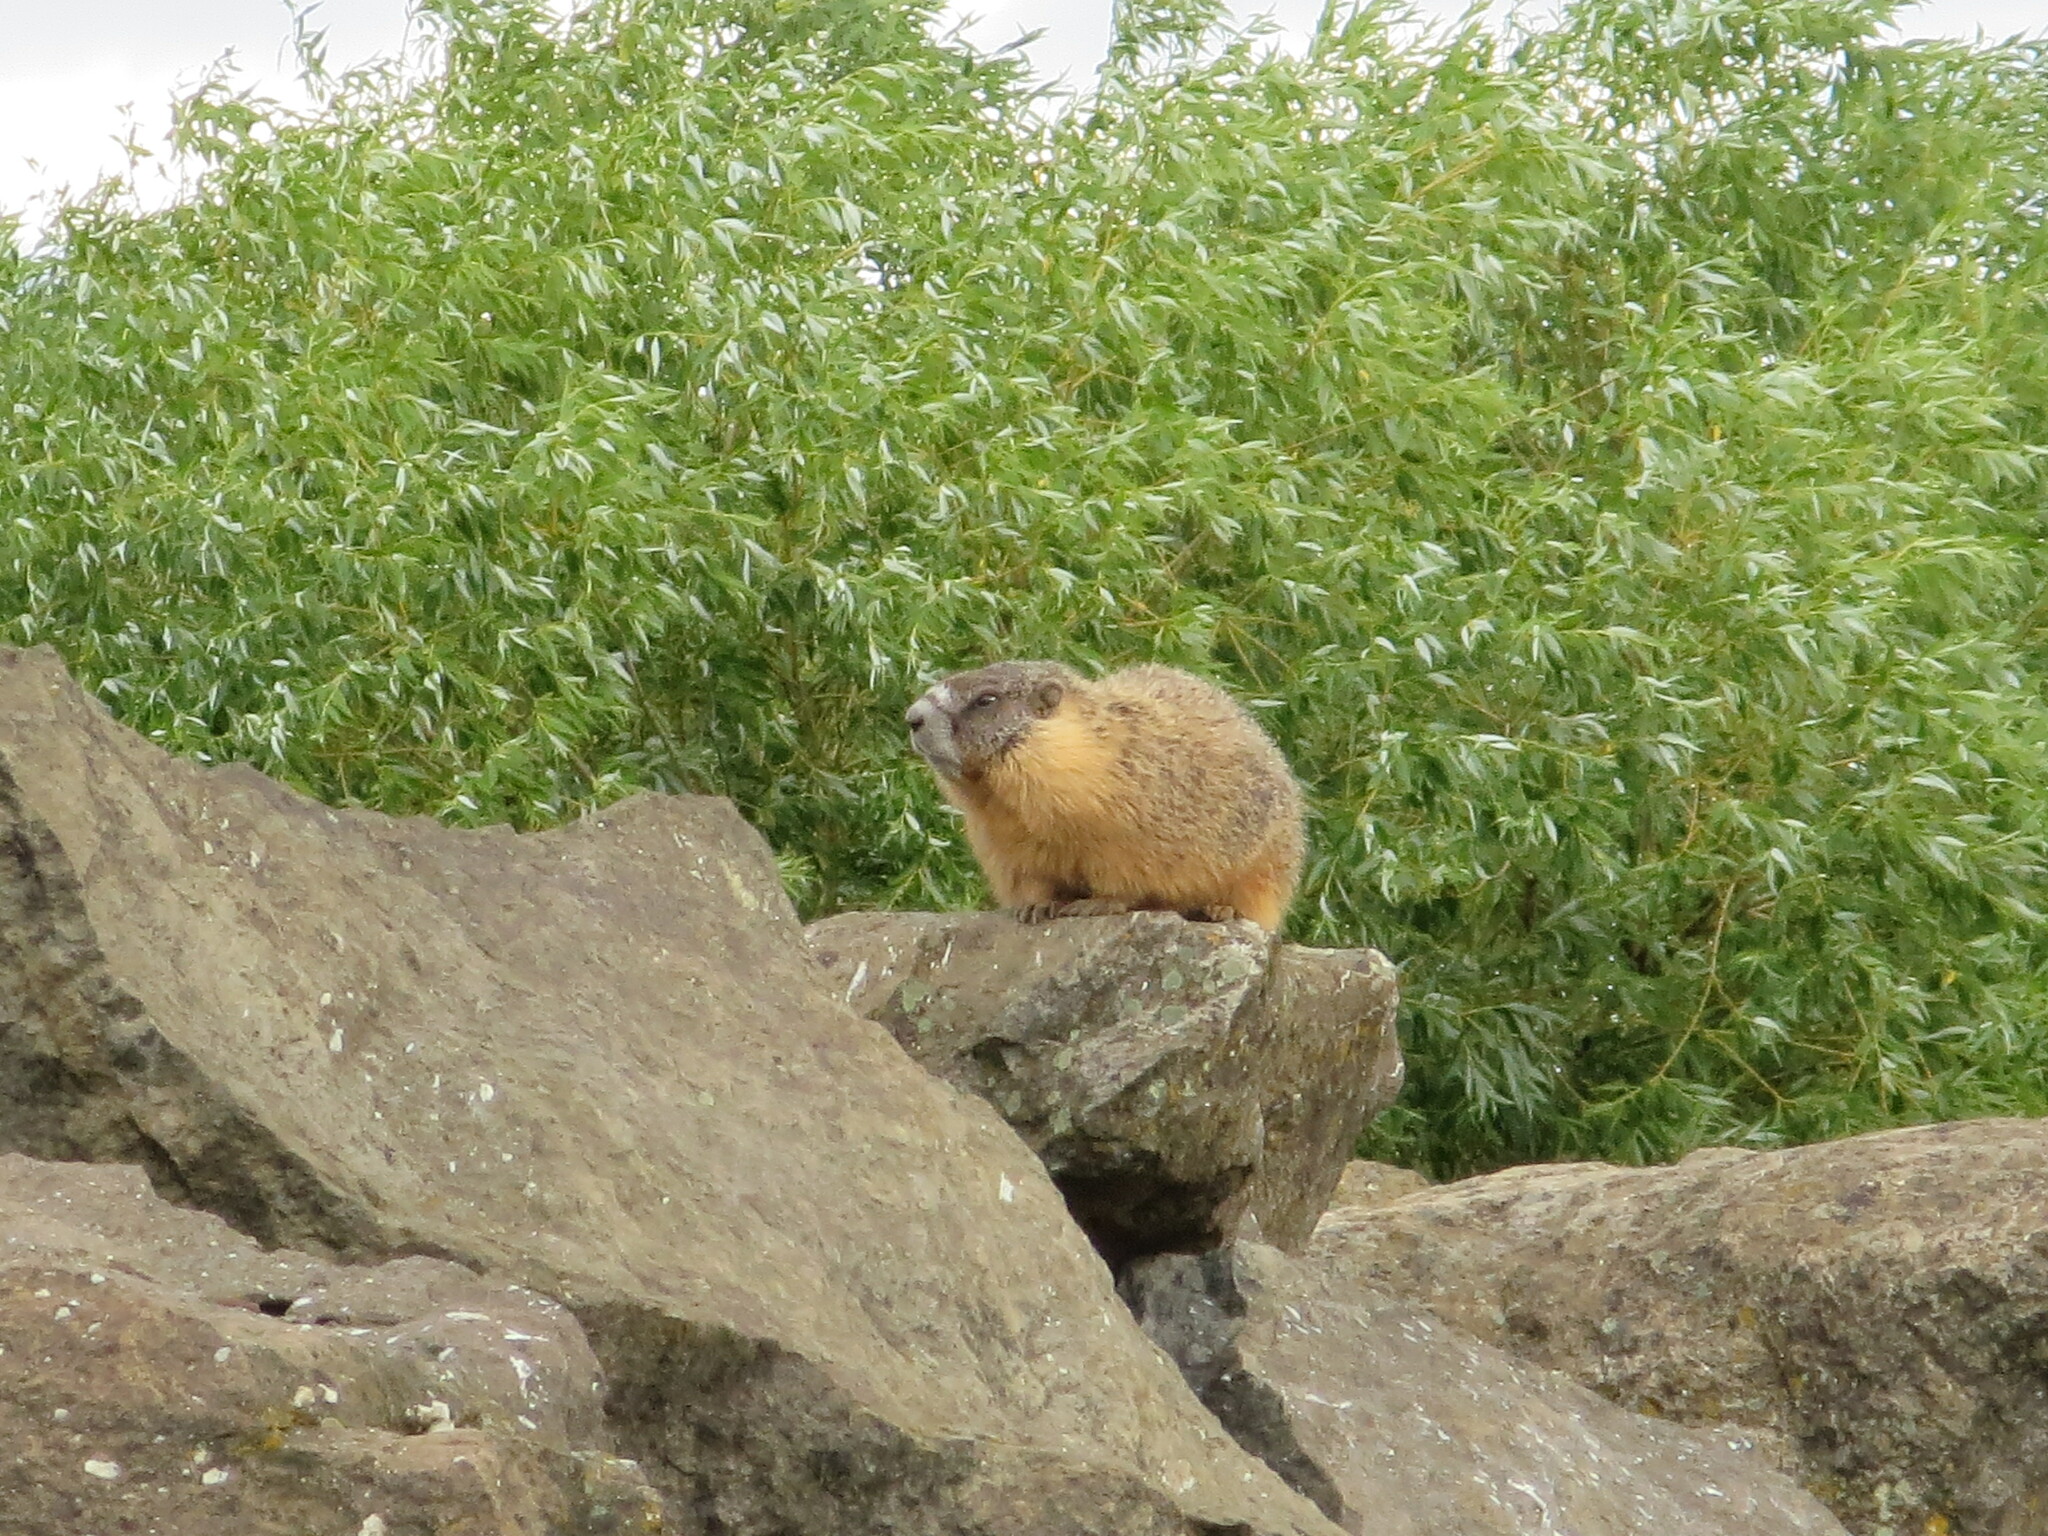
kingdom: Animalia
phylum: Chordata
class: Mammalia
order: Rodentia
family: Sciuridae
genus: Marmota
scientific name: Marmota flaviventris
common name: Yellow-bellied marmot
